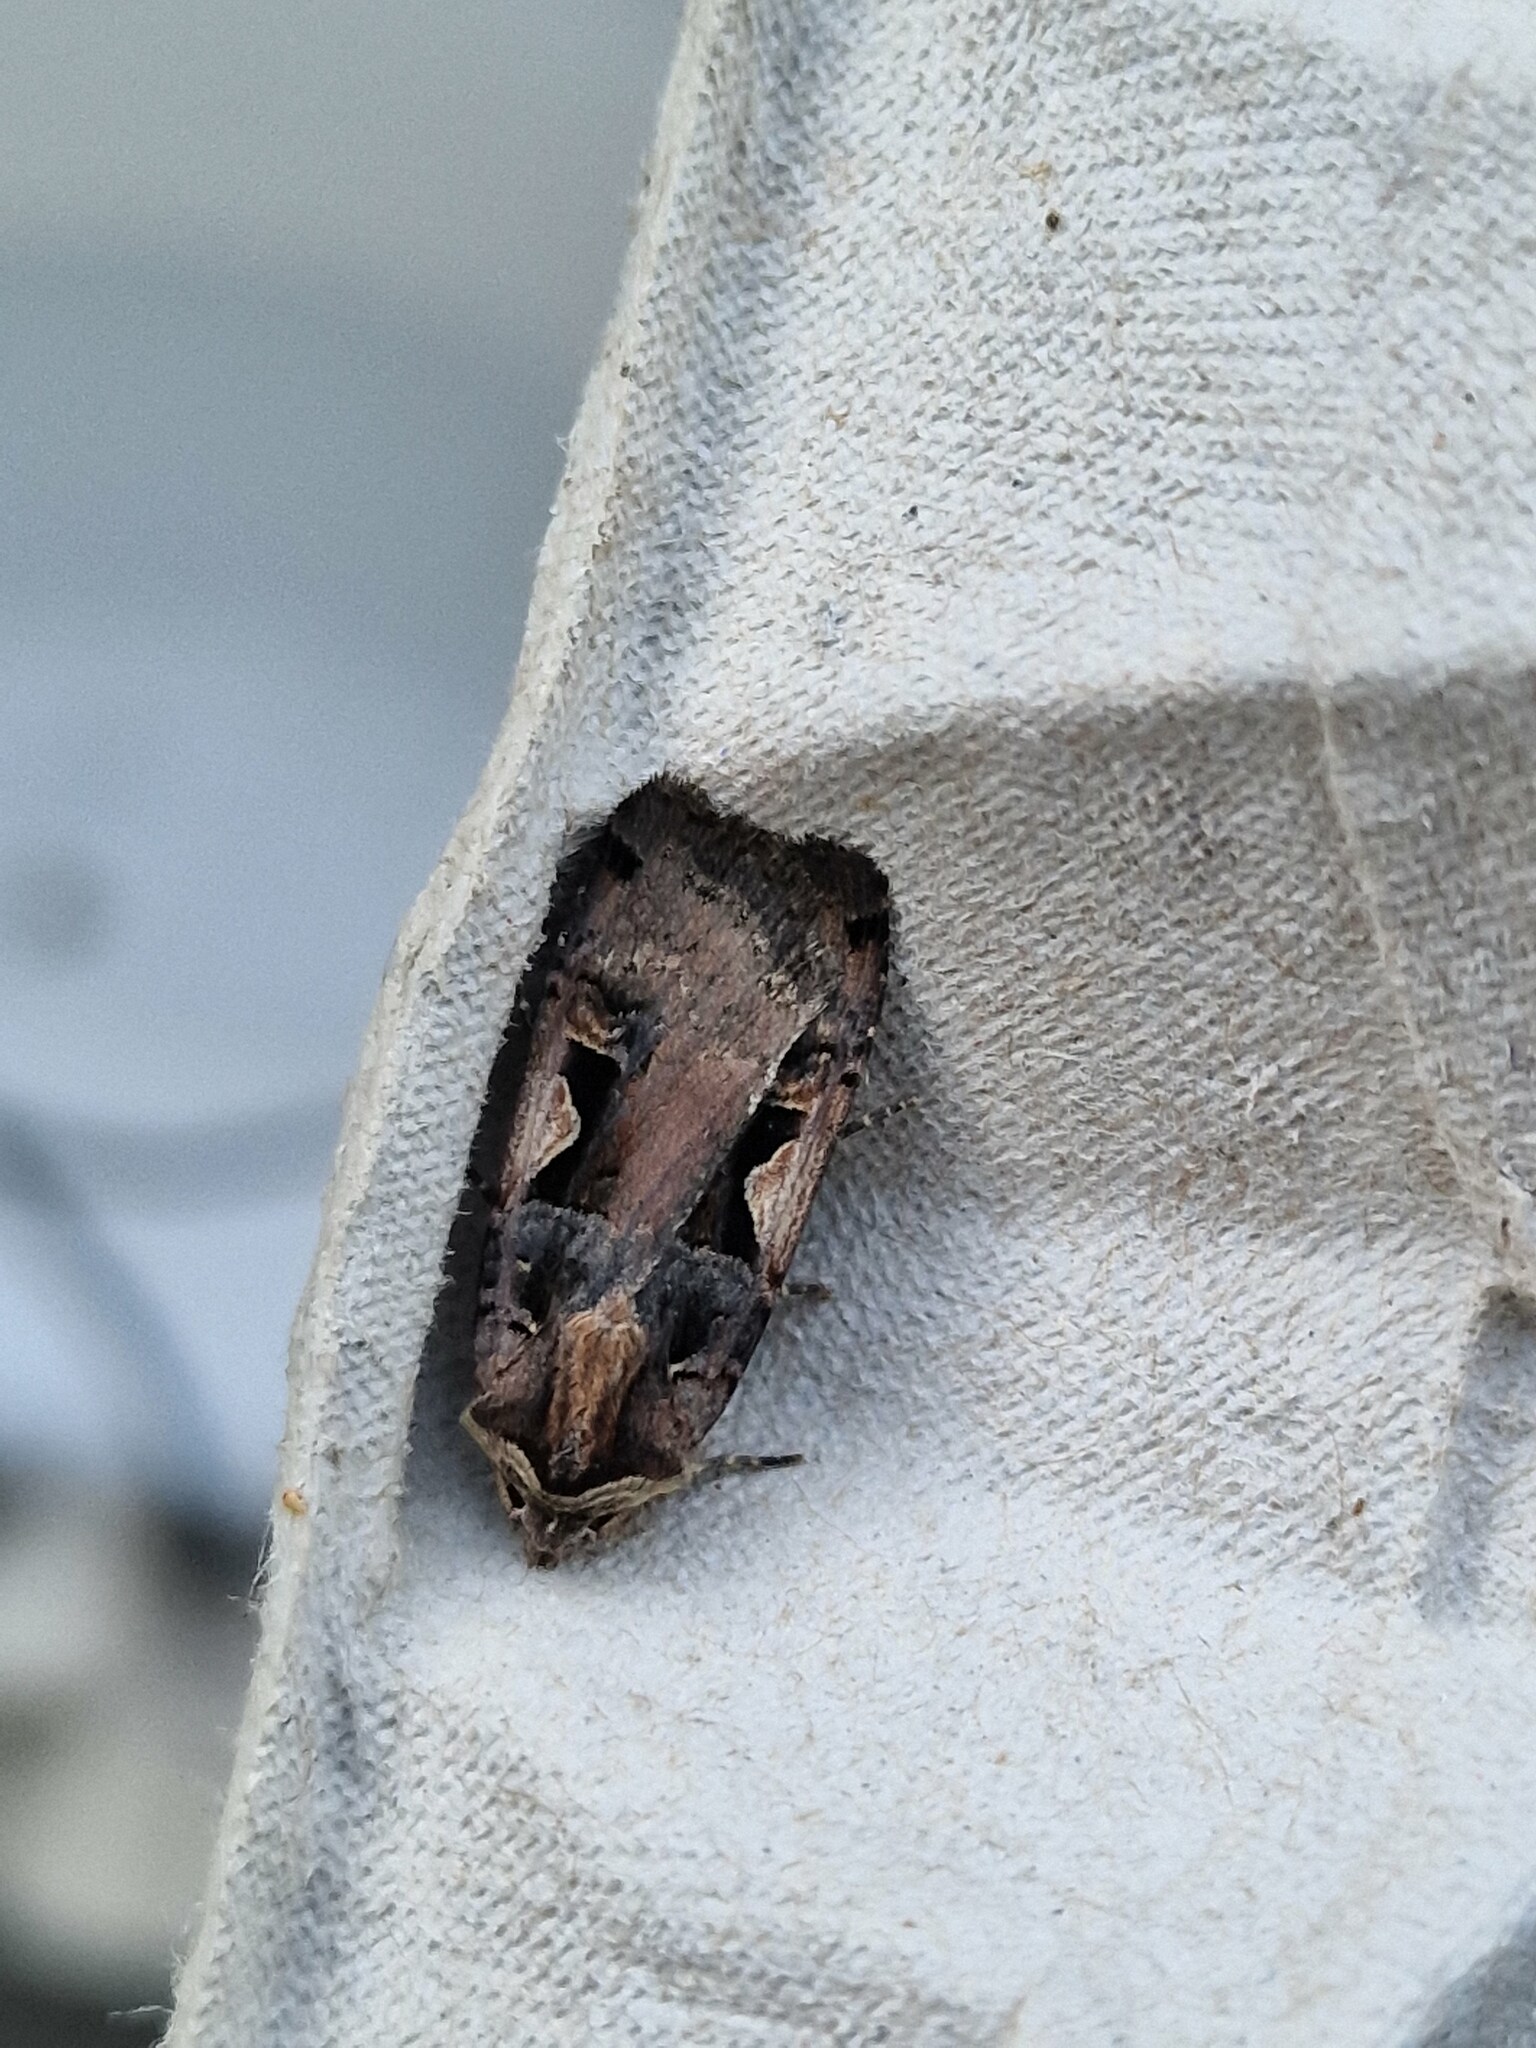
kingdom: Animalia
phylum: Arthropoda
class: Insecta
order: Lepidoptera
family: Noctuidae
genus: Xestia
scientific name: Xestia c-nigrum
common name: Setaceous hebrew character
